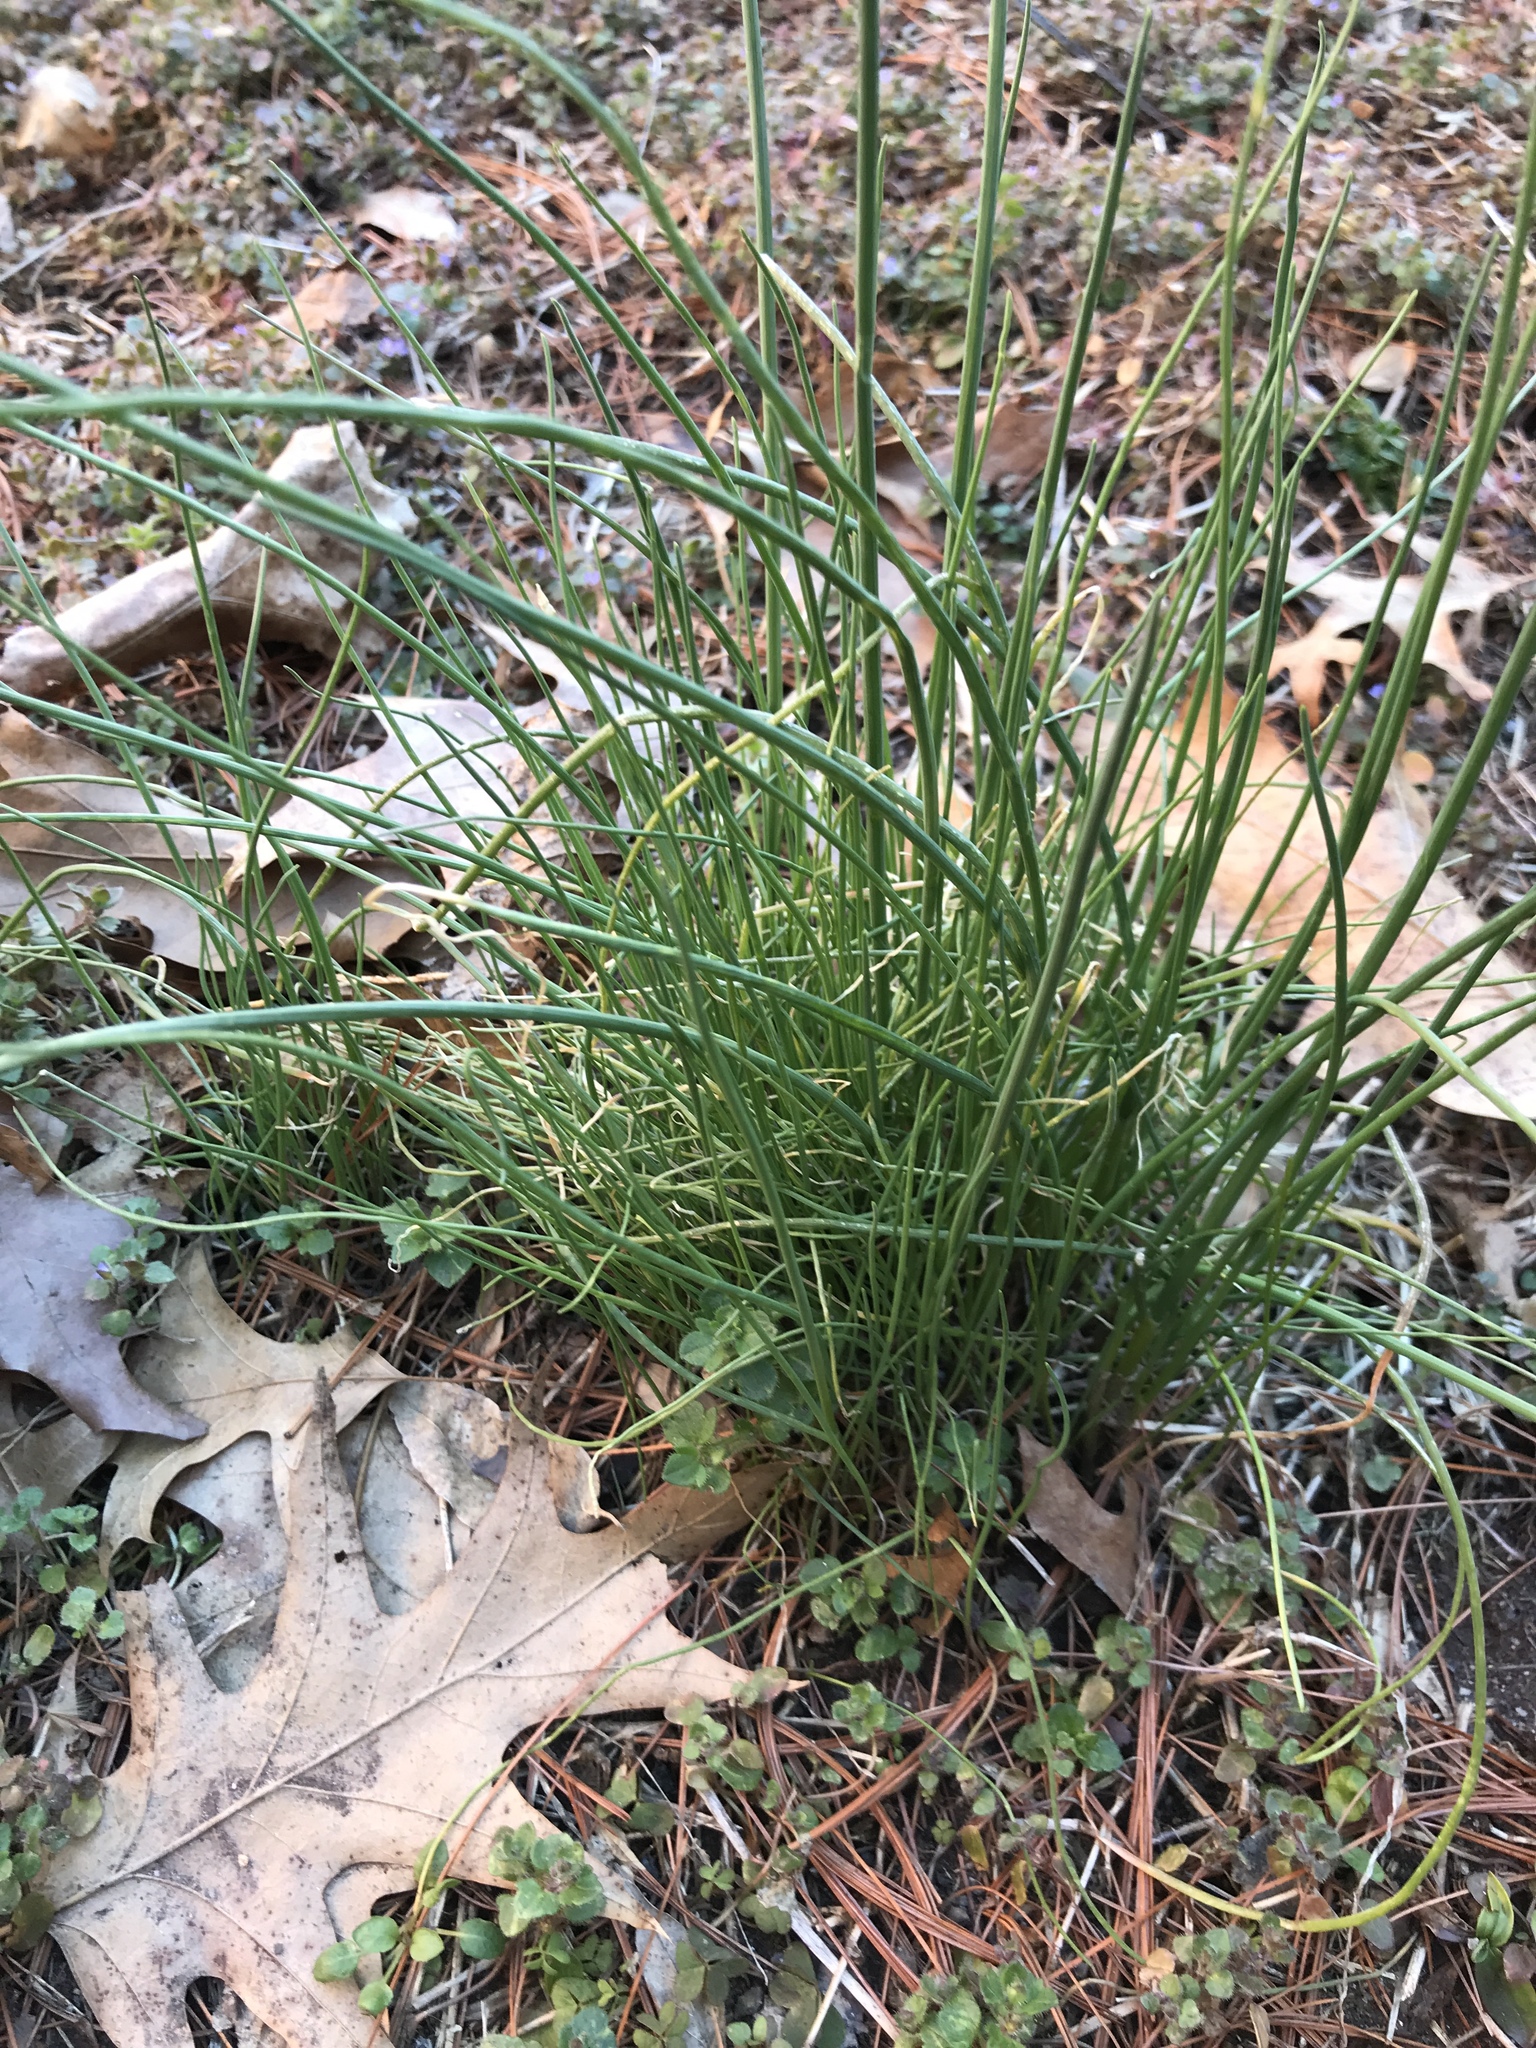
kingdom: Plantae
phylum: Tracheophyta
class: Liliopsida
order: Asparagales
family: Amaryllidaceae
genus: Allium
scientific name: Allium vineale
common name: Crow garlic
